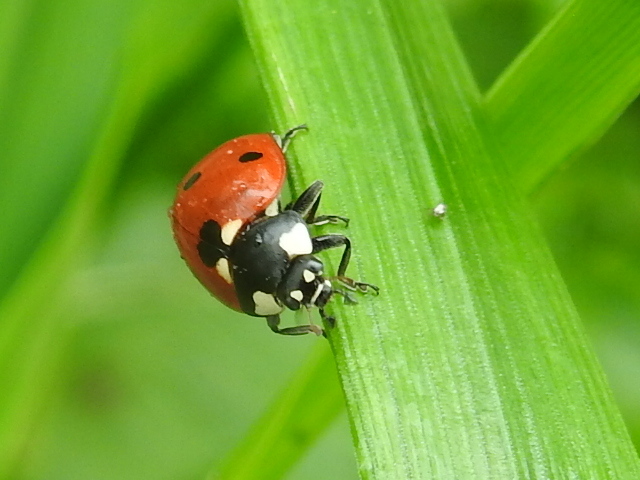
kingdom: Animalia
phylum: Arthropoda
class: Insecta
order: Coleoptera
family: Coccinellidae
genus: Coccinella
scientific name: Coccinella septempunctata
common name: Sevenspotted lady beetle
